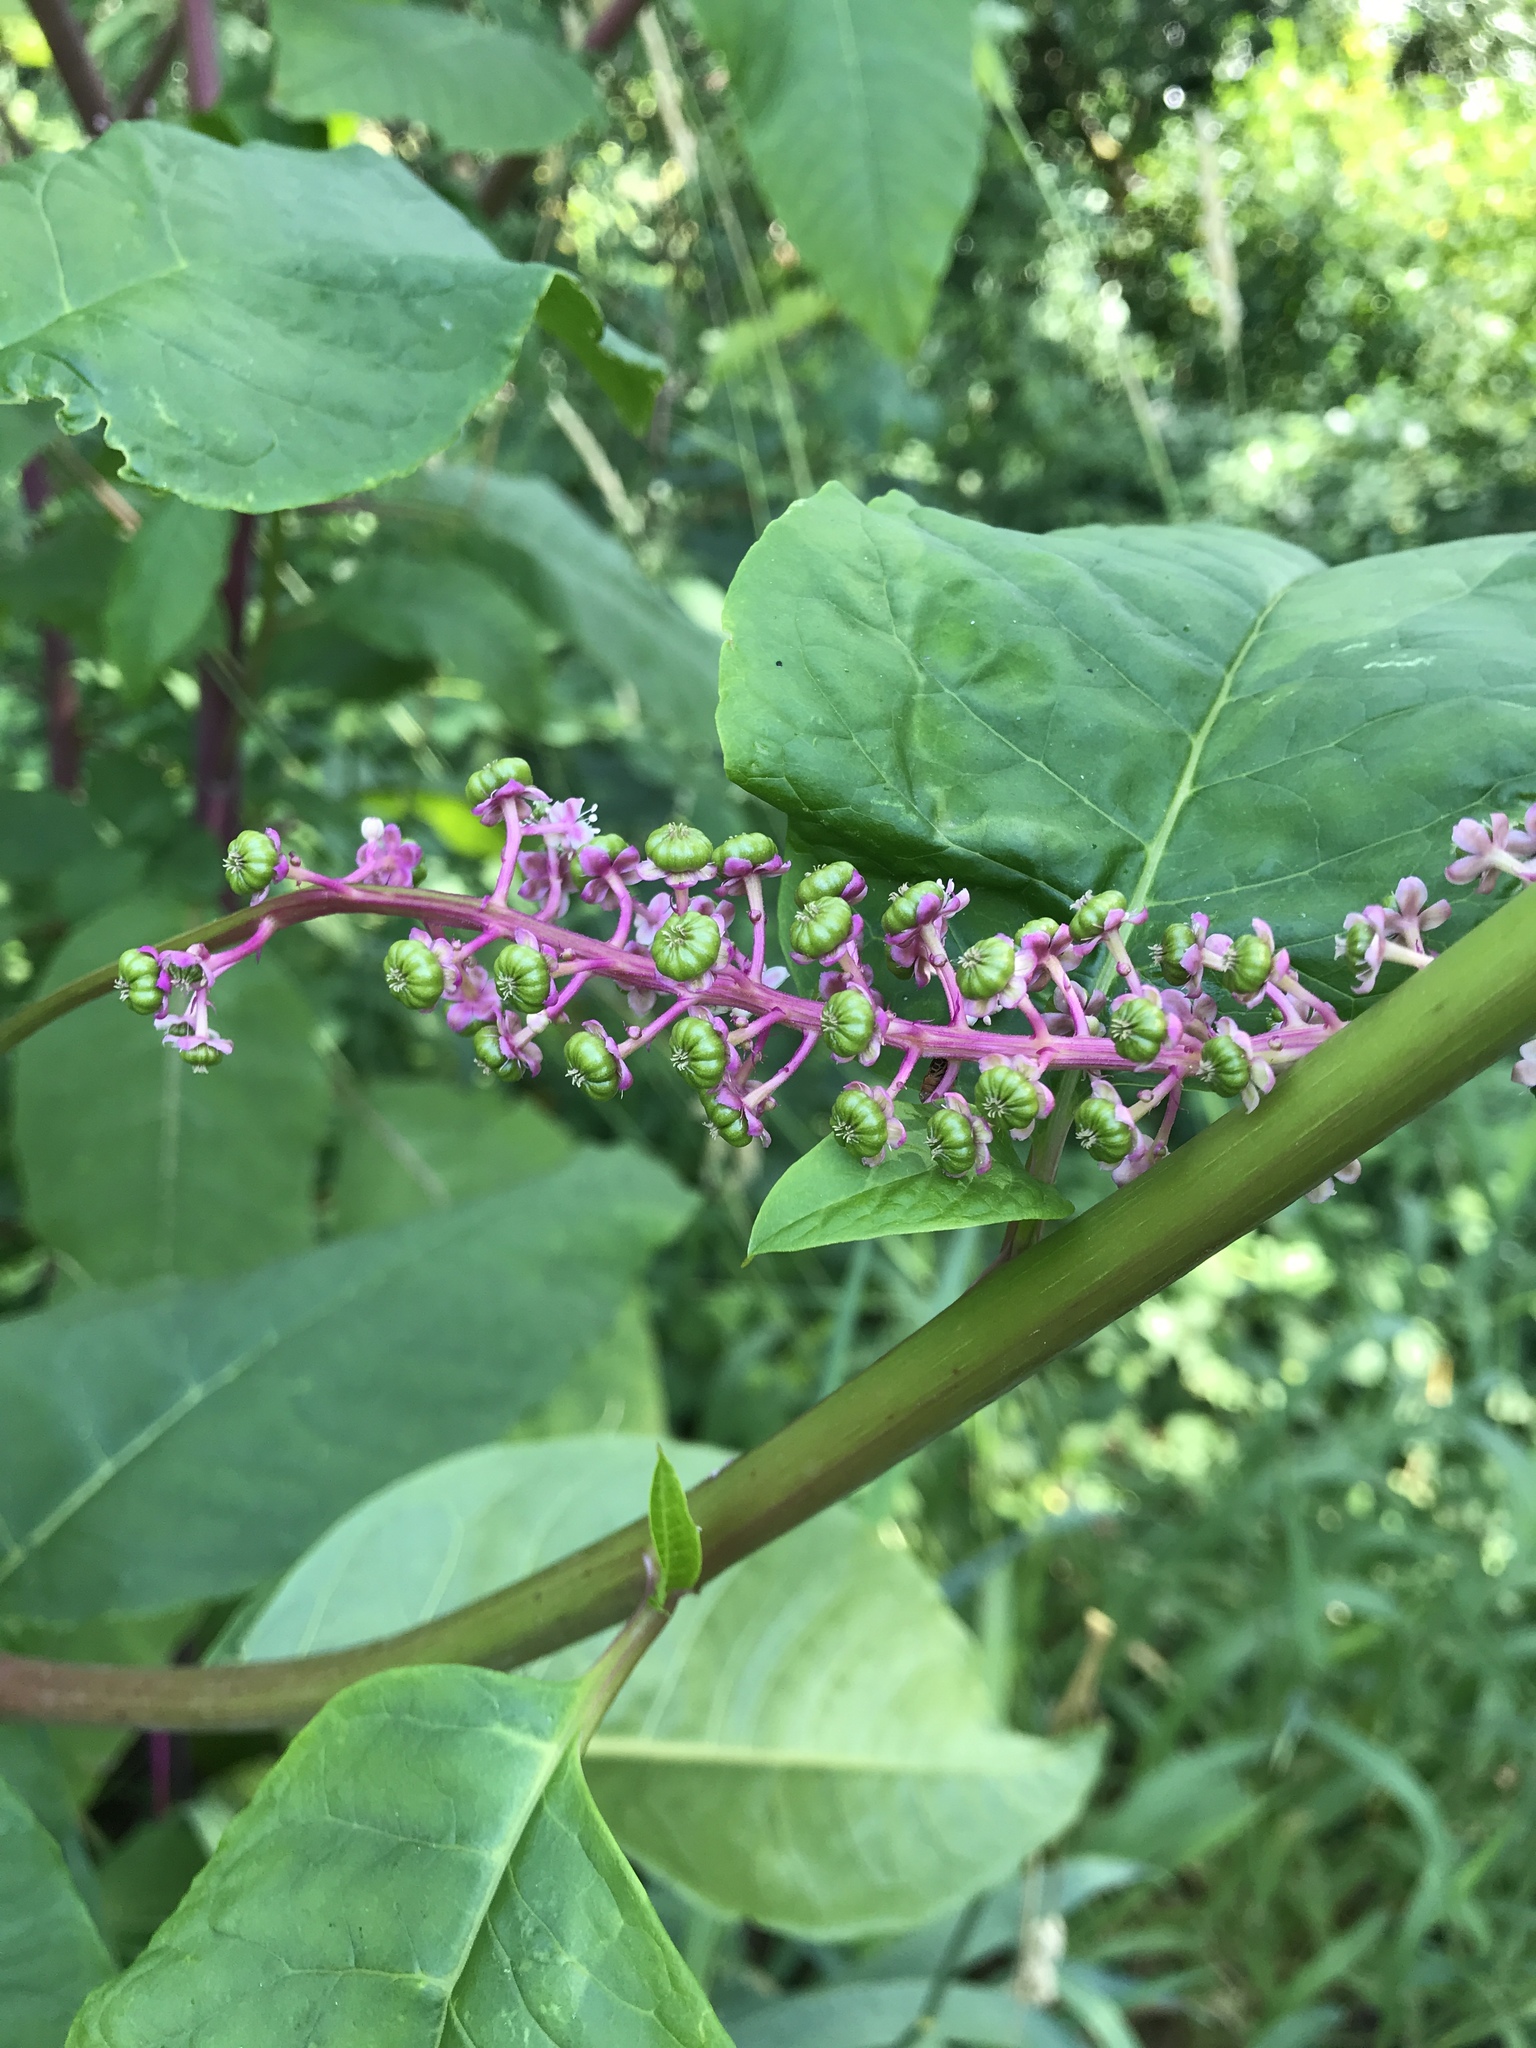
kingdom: Plantae
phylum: Tracheophyta
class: Magnoliopsida
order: Caryophyllales
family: Phytolaccaceae
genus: Phytolacca
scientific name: Phytolacca americana
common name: American pokeweed
